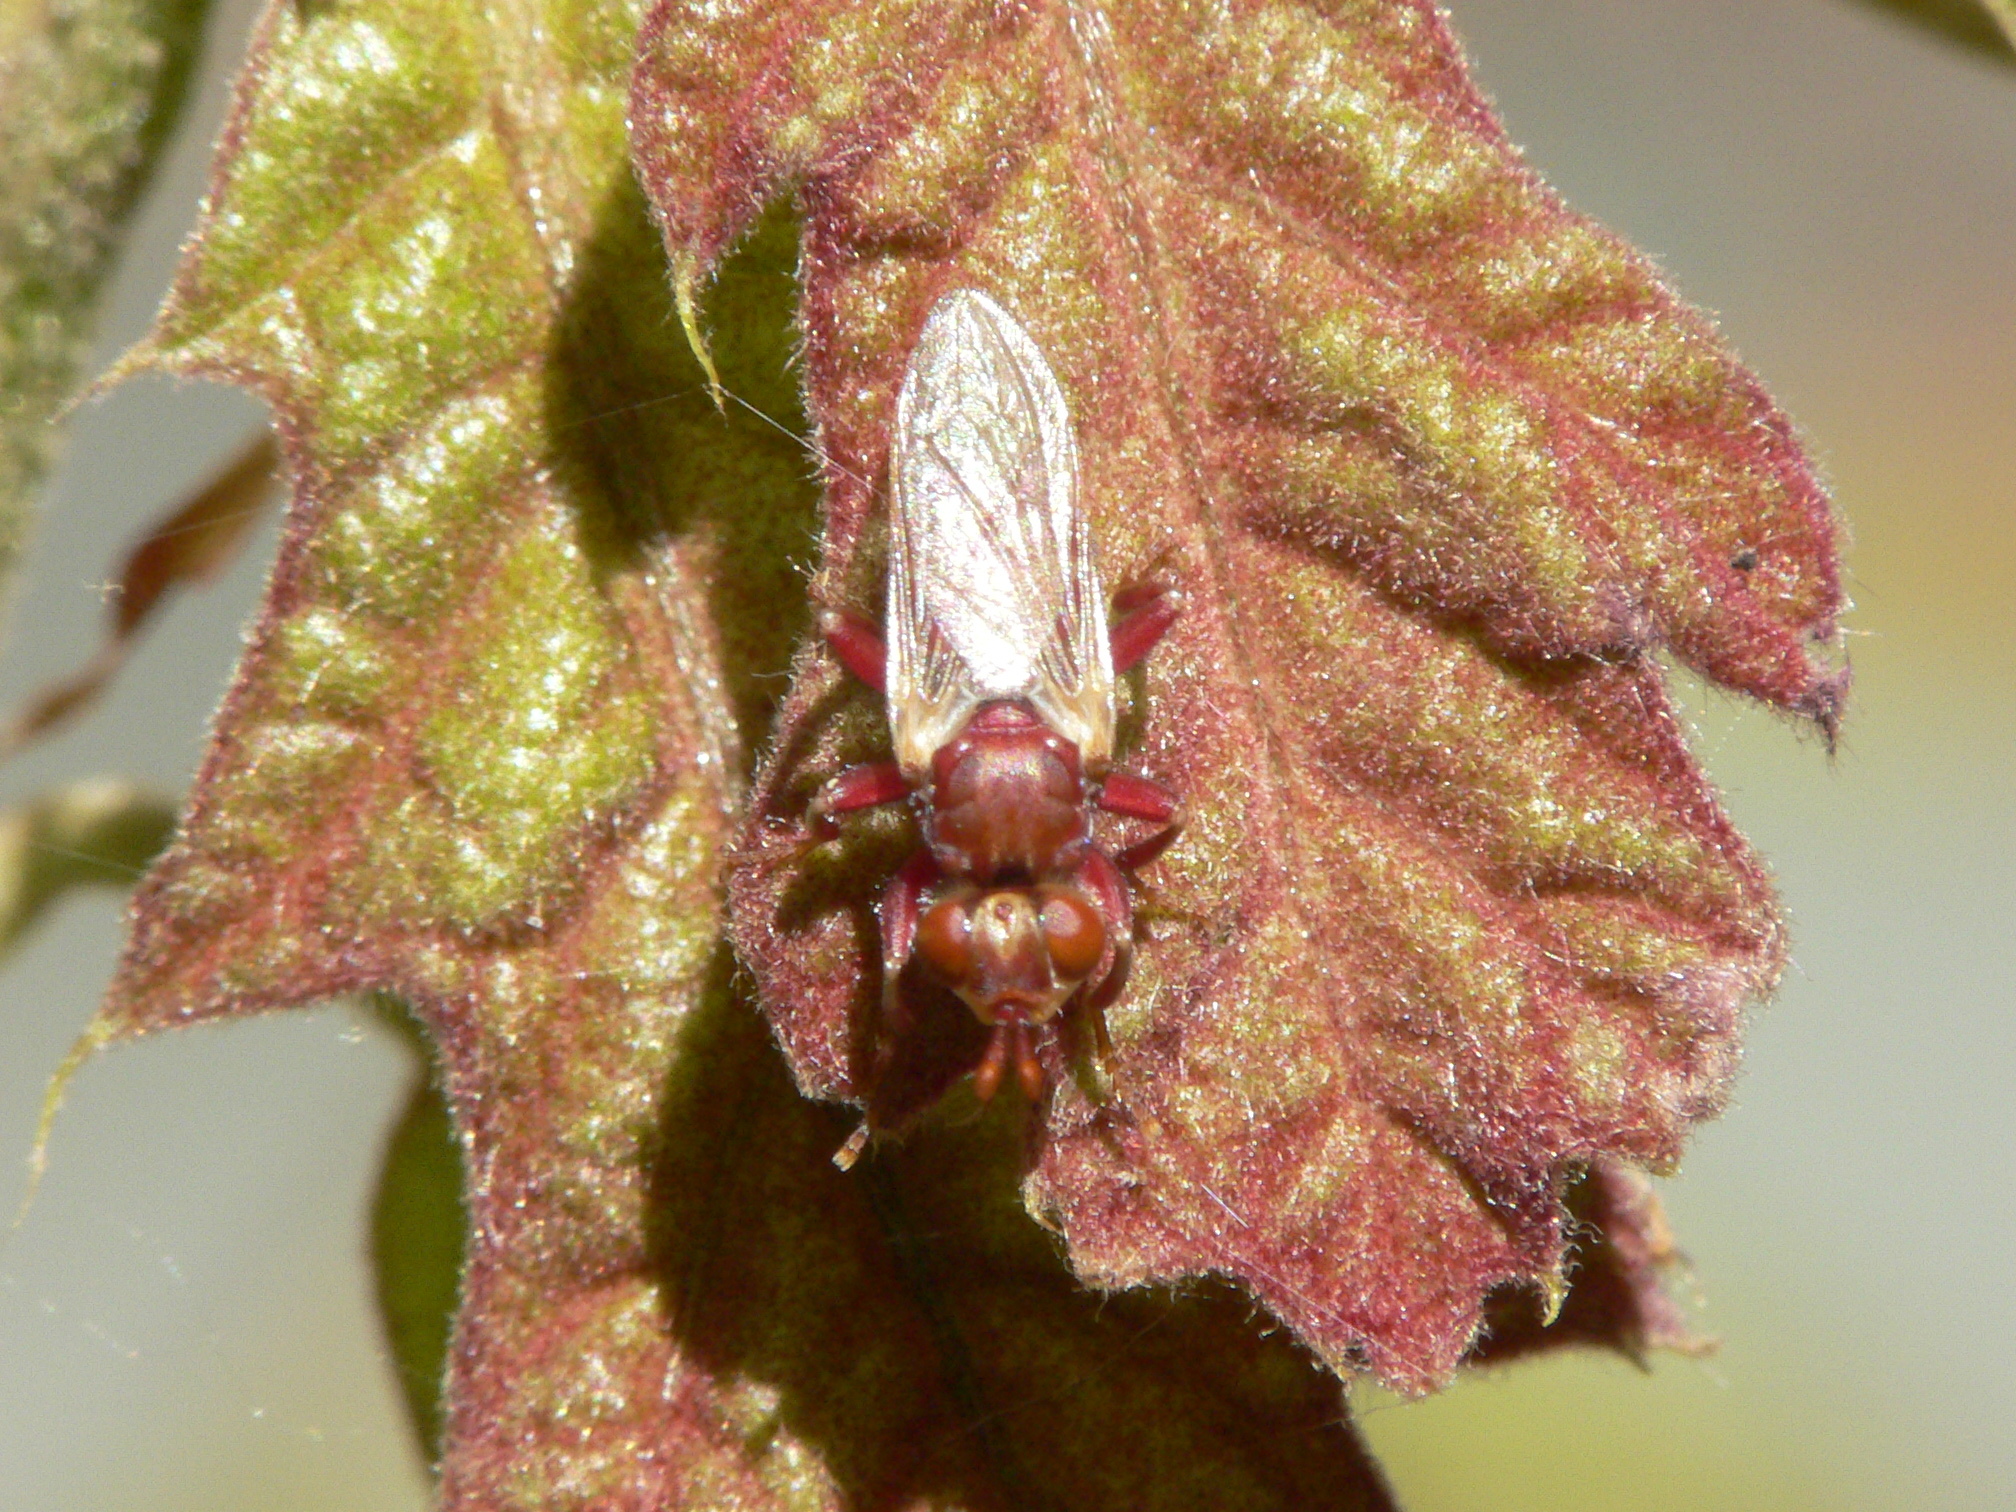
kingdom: Animalia
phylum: Arthropoda
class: Insecta
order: Diptera
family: Conopidae
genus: Myopa
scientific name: Myopa clausa
